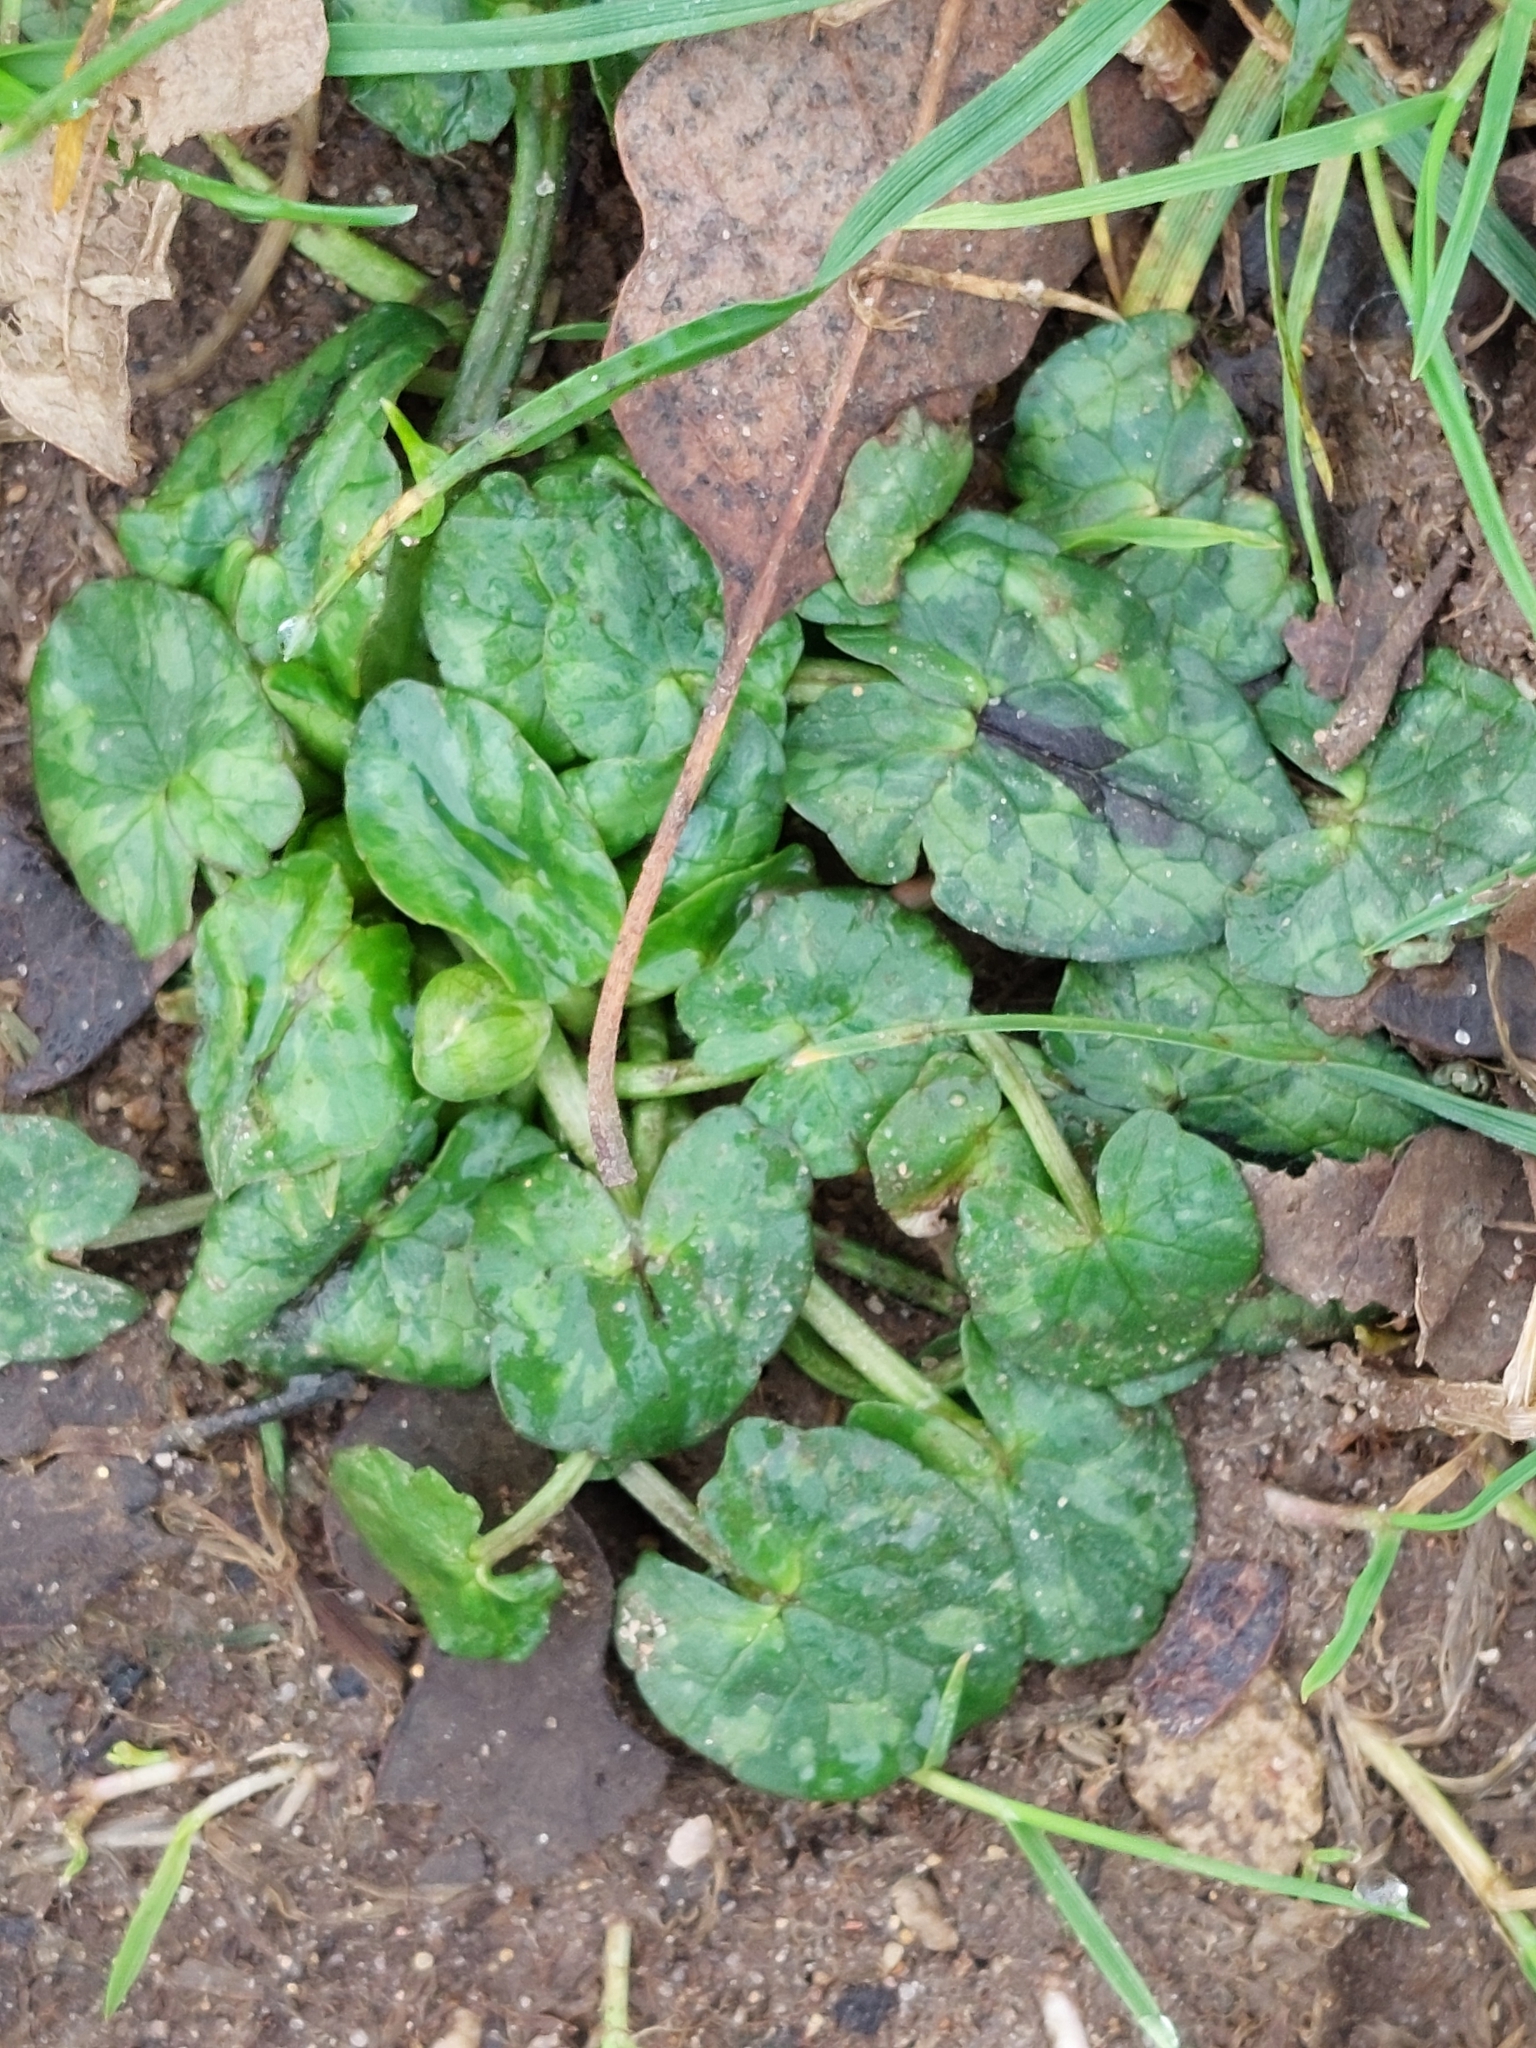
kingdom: Plantae
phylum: Tracheophyta
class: Magnoliopsida
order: Ranunculales
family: Ranunculaceae
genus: Ficaria
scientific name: Ficaria verna
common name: Lesser celandine
